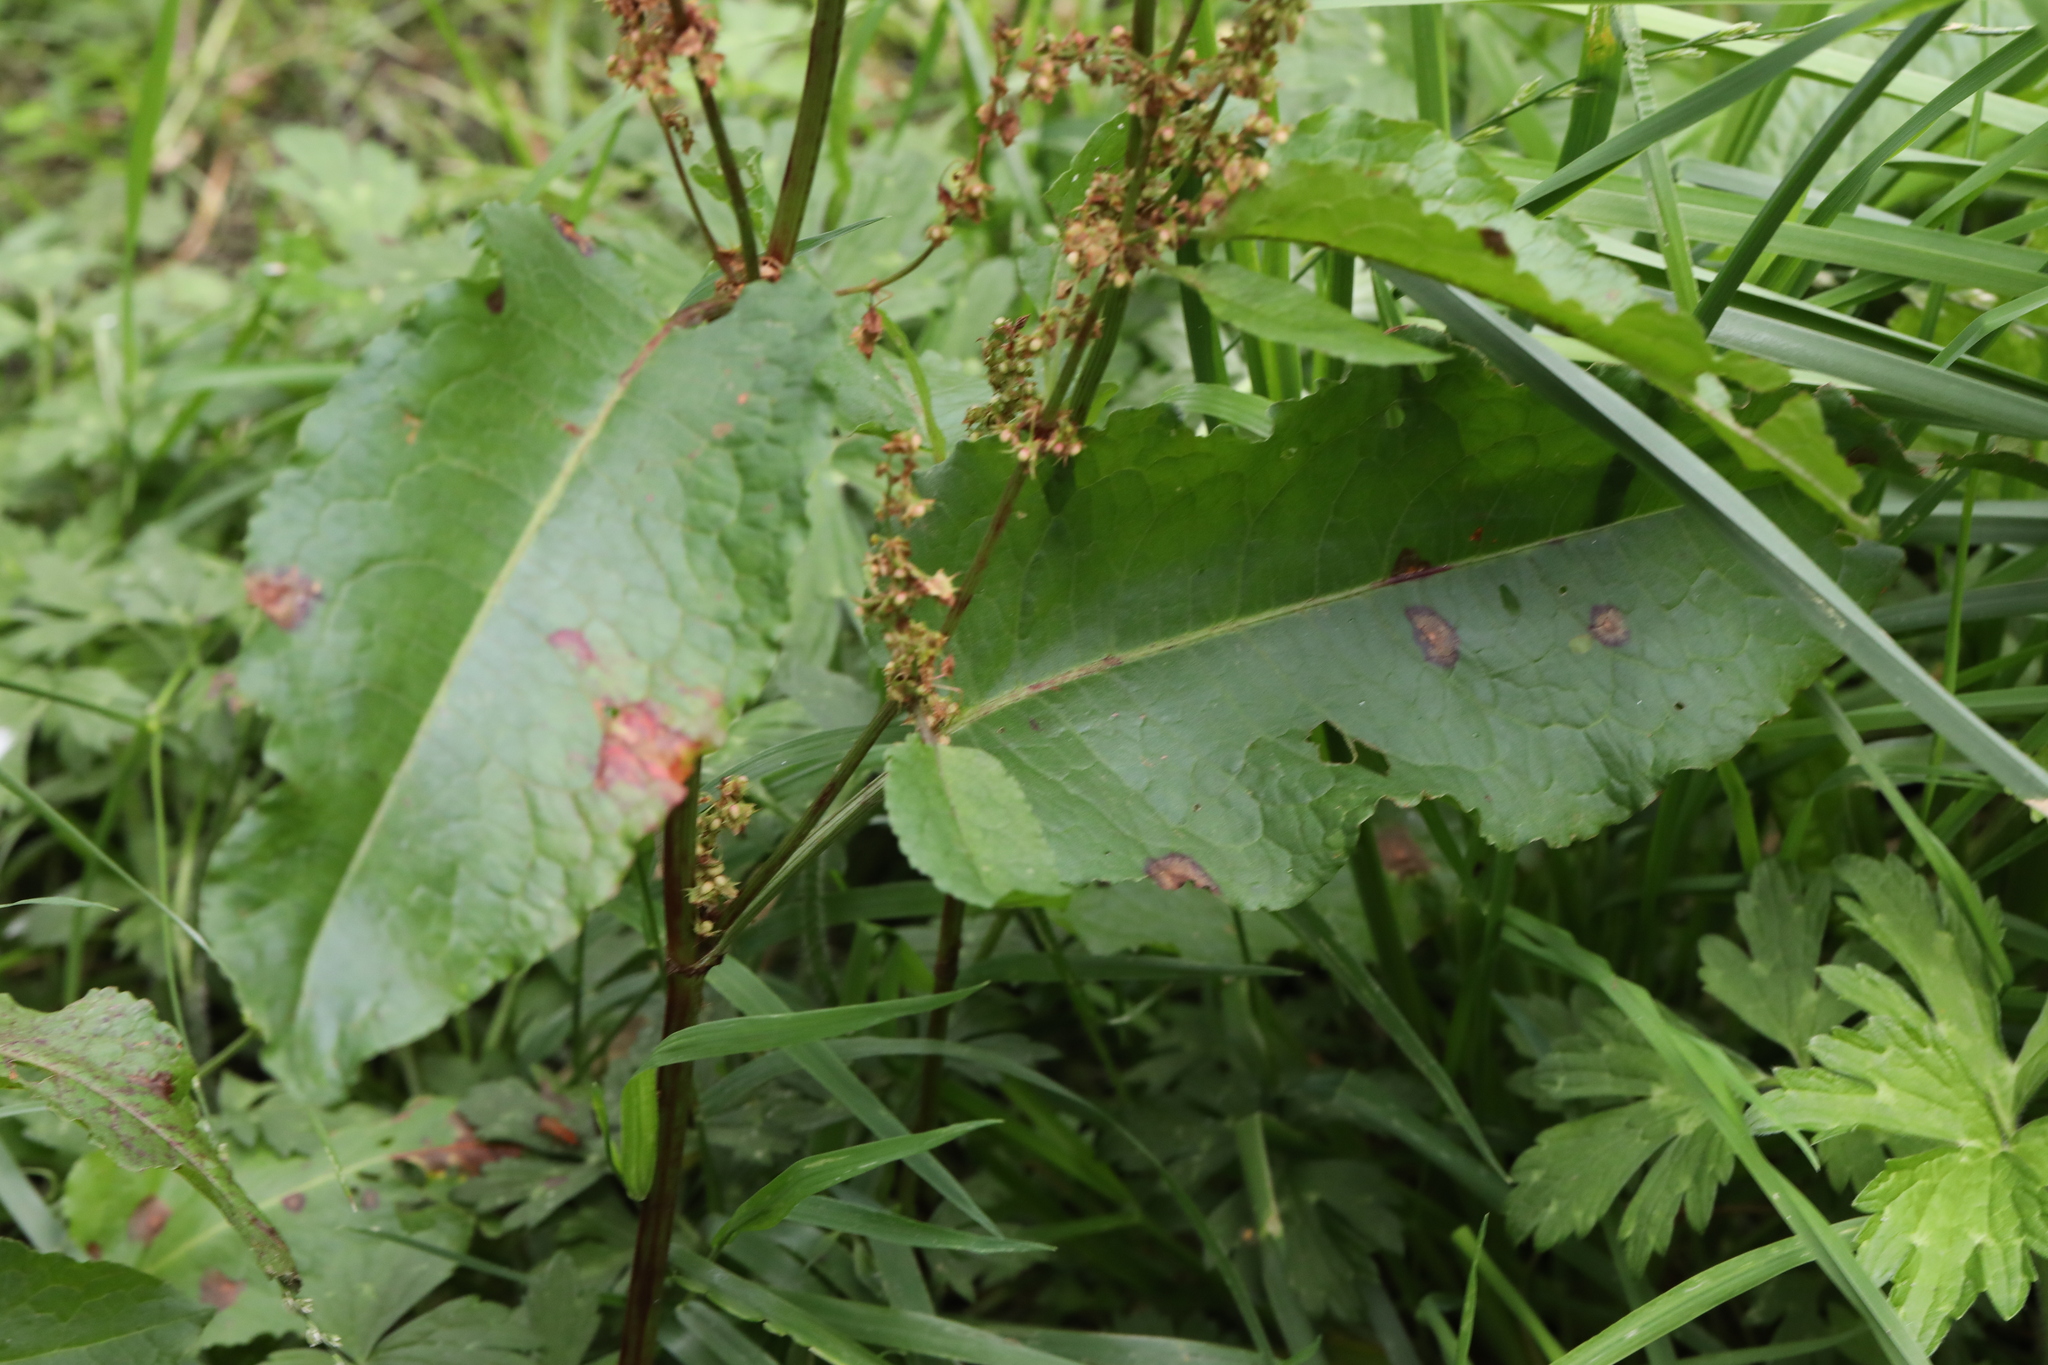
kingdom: Plantae
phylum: Tracheophyta
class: Magnoliopsida
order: Caryophyllales
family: Polygonaceae
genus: Rumex
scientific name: Rumex obtusifolius
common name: Bitter dock
